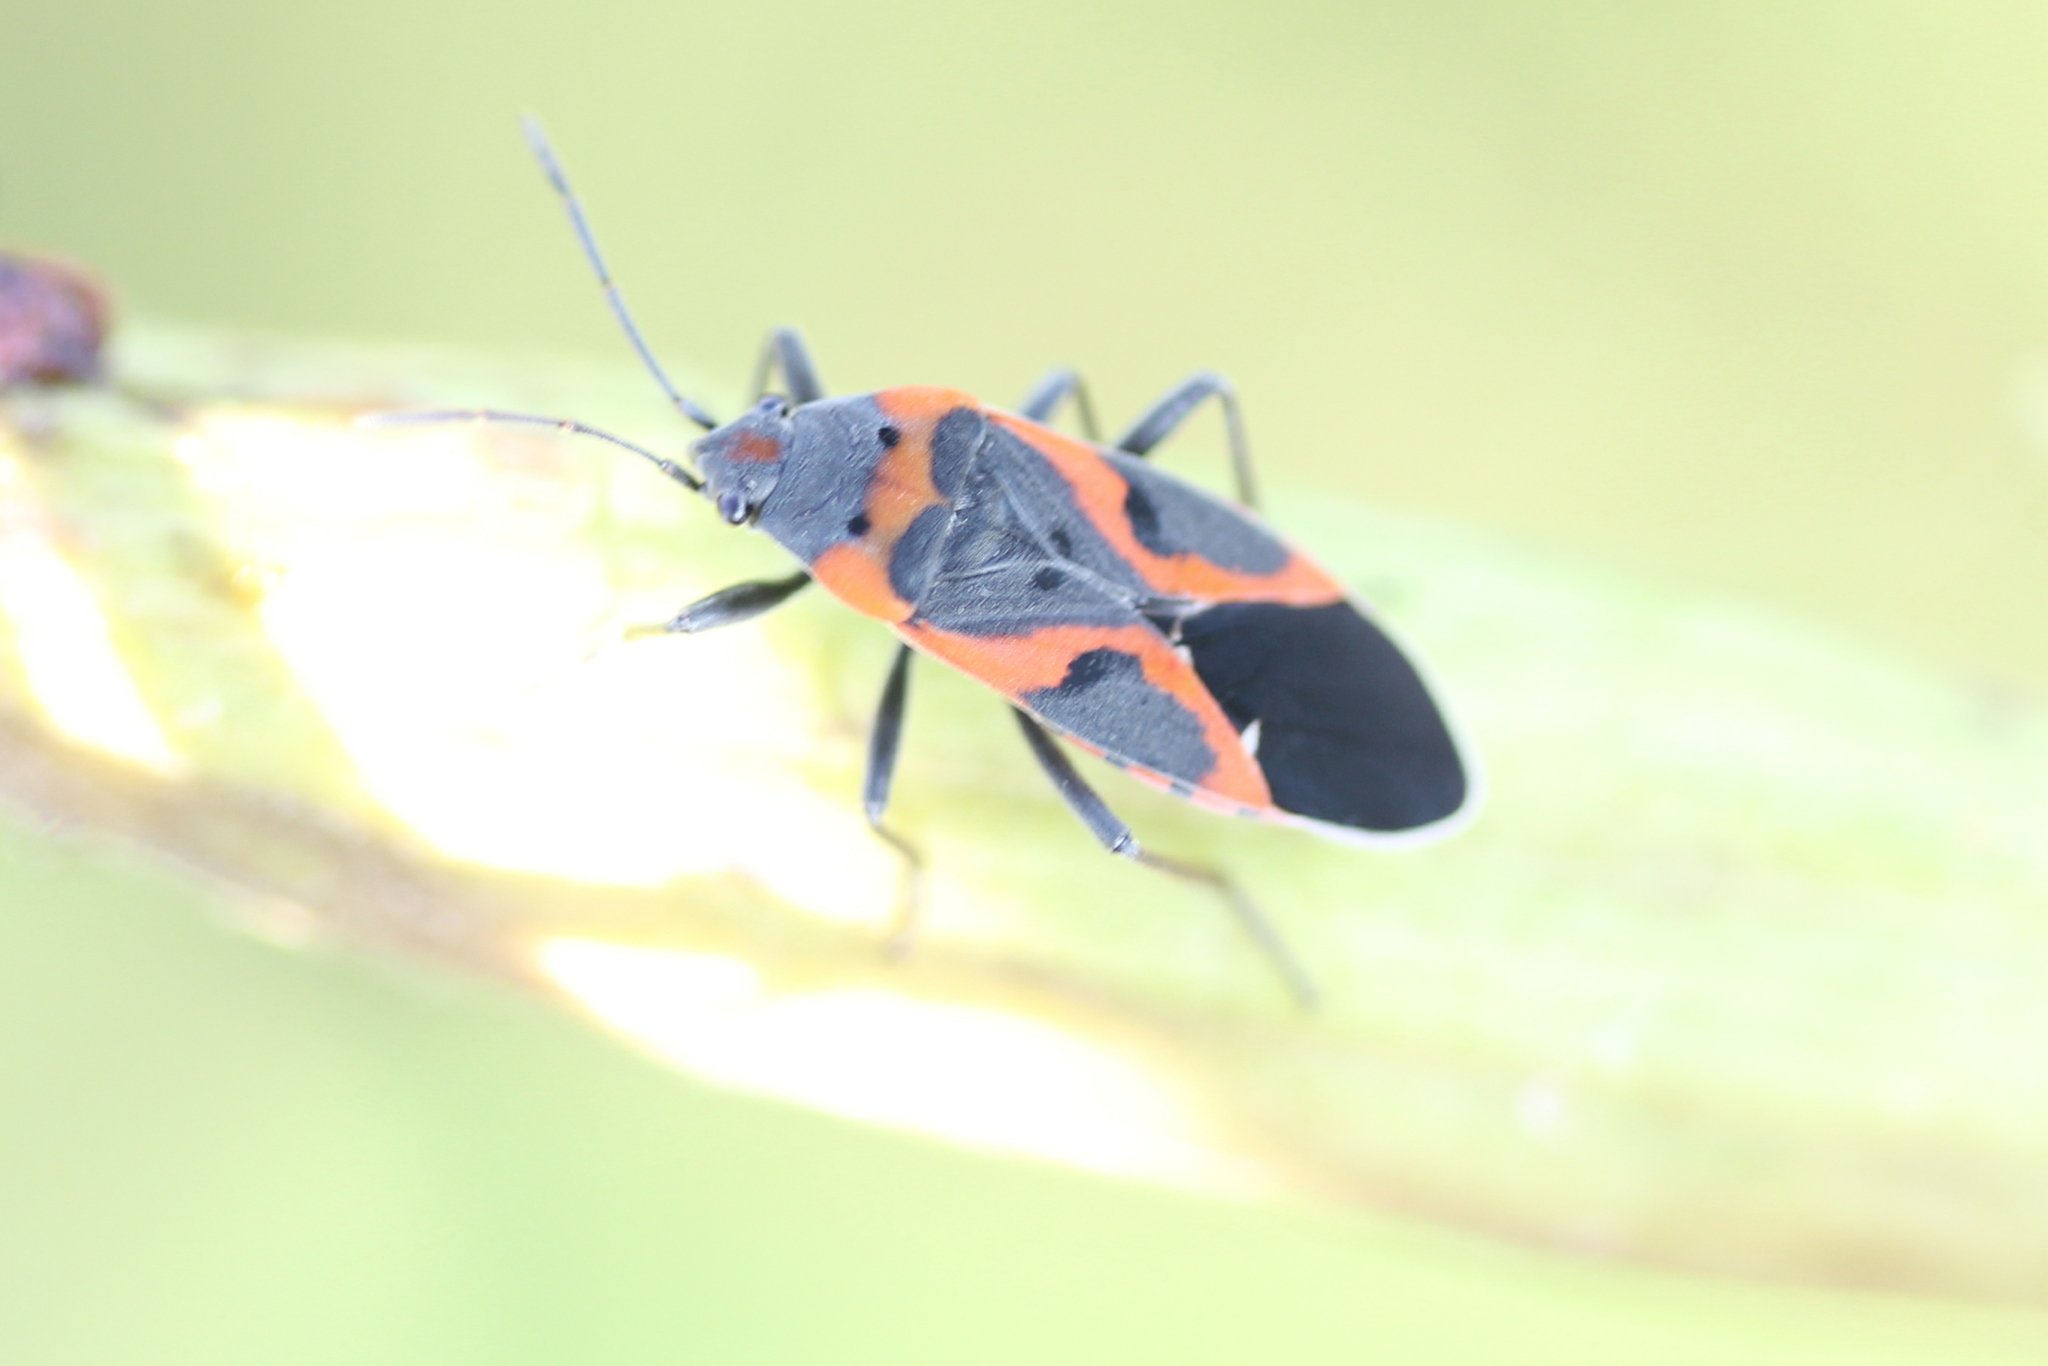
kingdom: Animalia
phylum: Arthropoda
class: Insecta
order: Hemiptera
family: Lygaeidae
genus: Lygaeus
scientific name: Lygaeus kalmii
